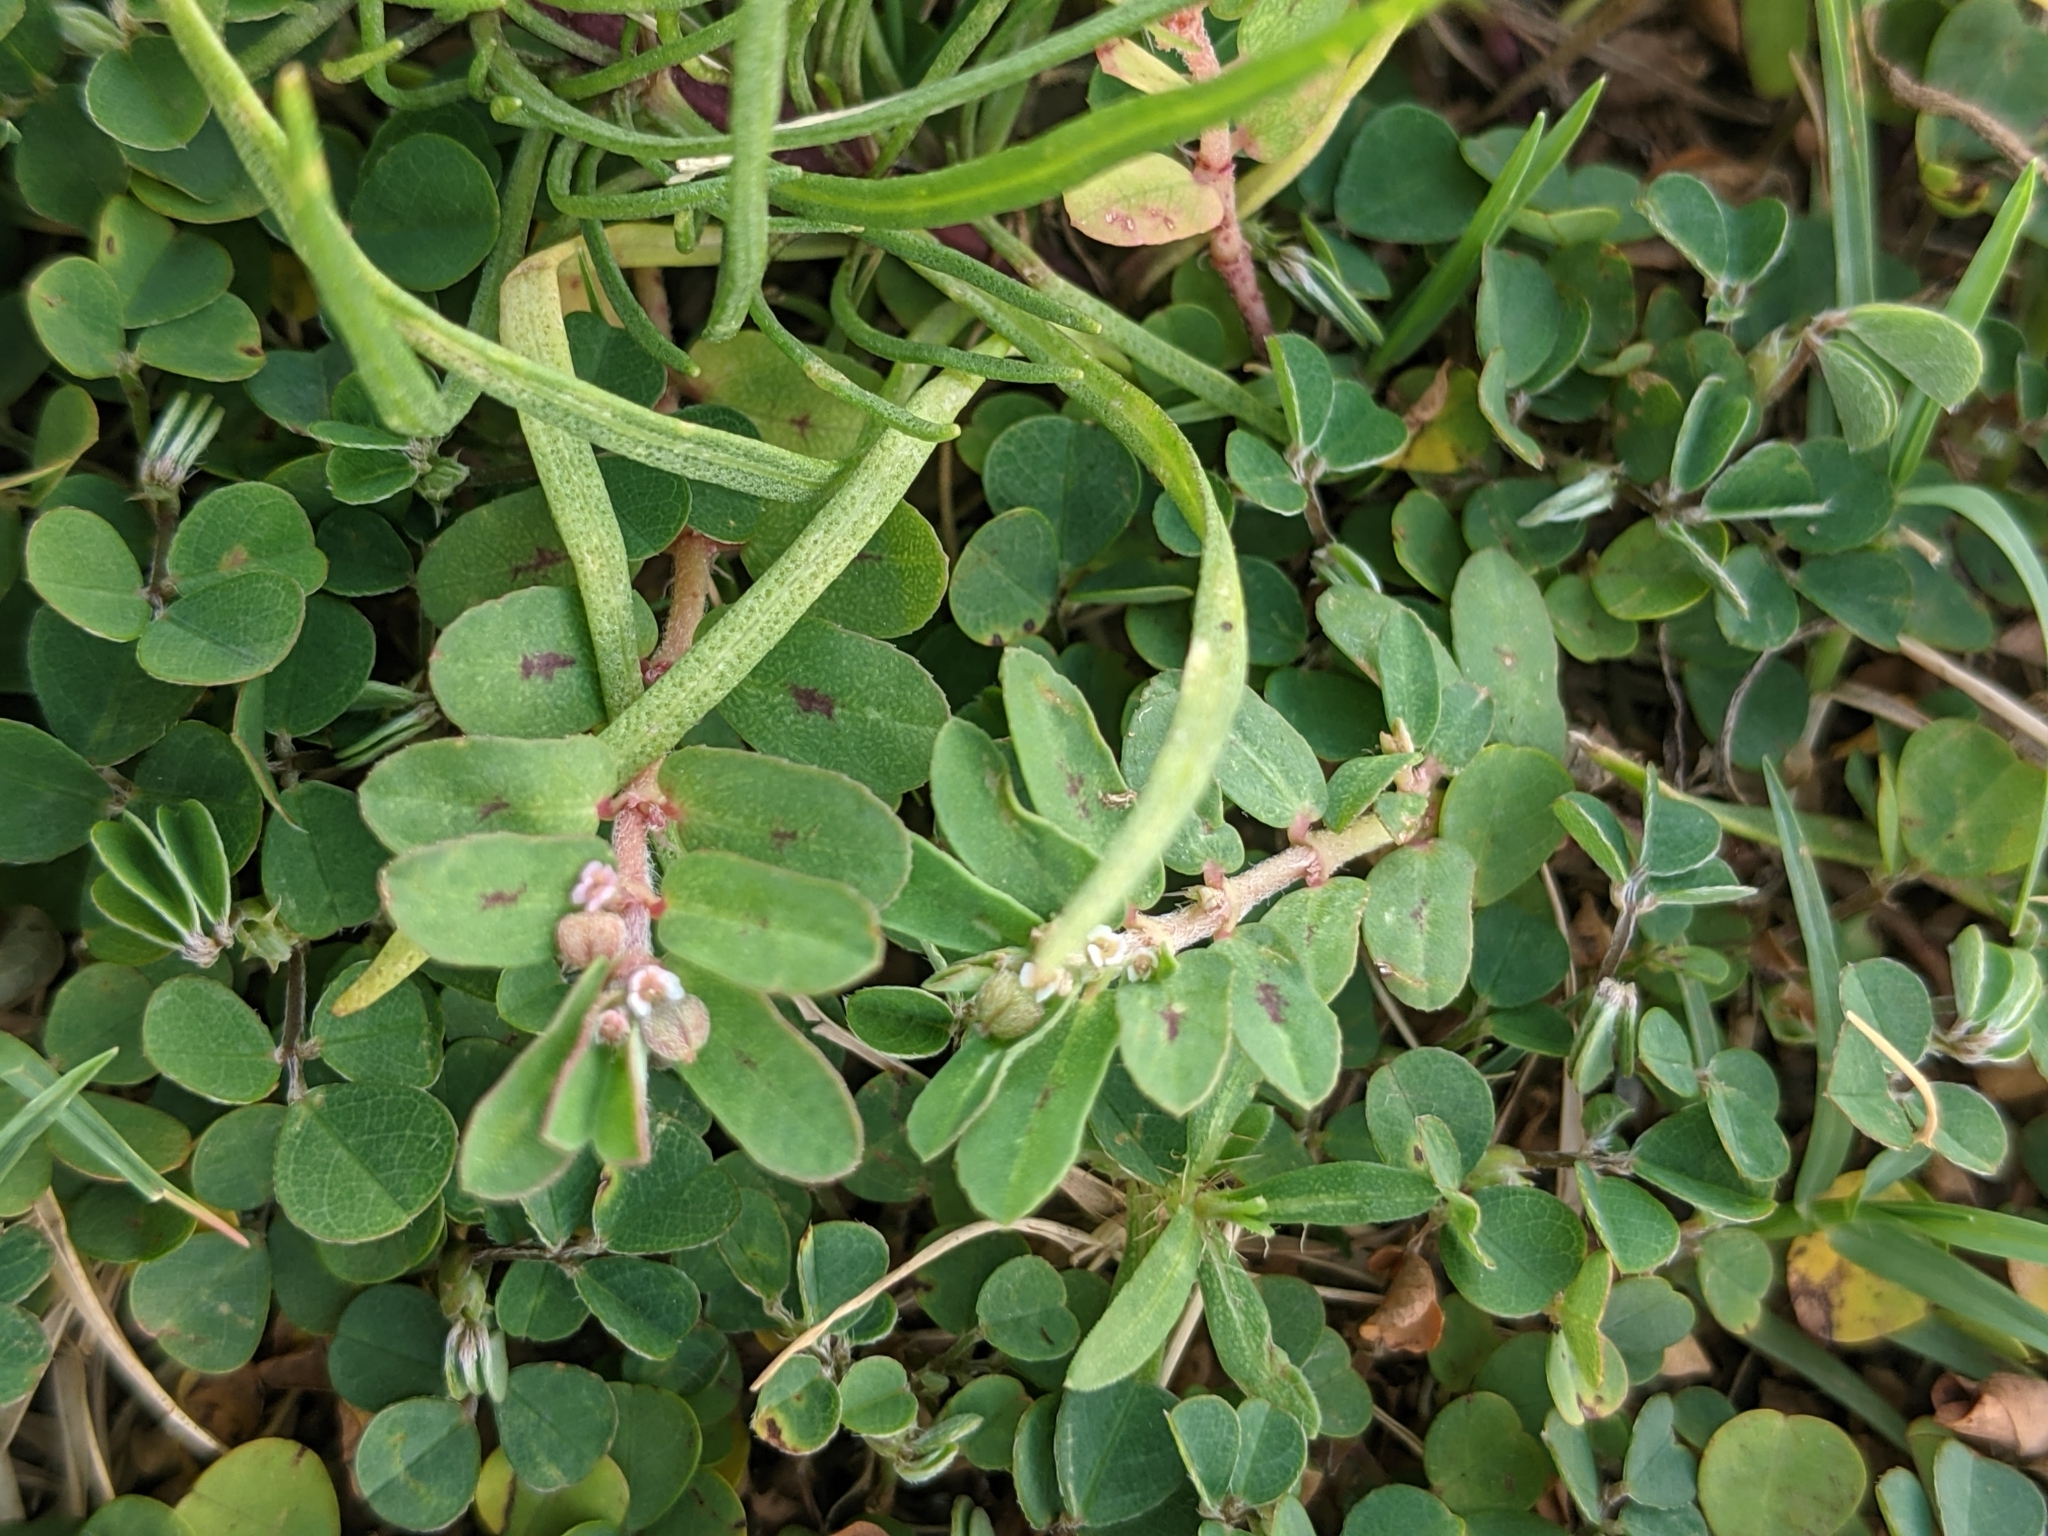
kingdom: Plantae
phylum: Tracheophyta
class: Magnoliopsida
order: Malpighiales
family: Euphorbiaceae
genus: Euphorbia
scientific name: Euphorbia maculata
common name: Spotted spurge
